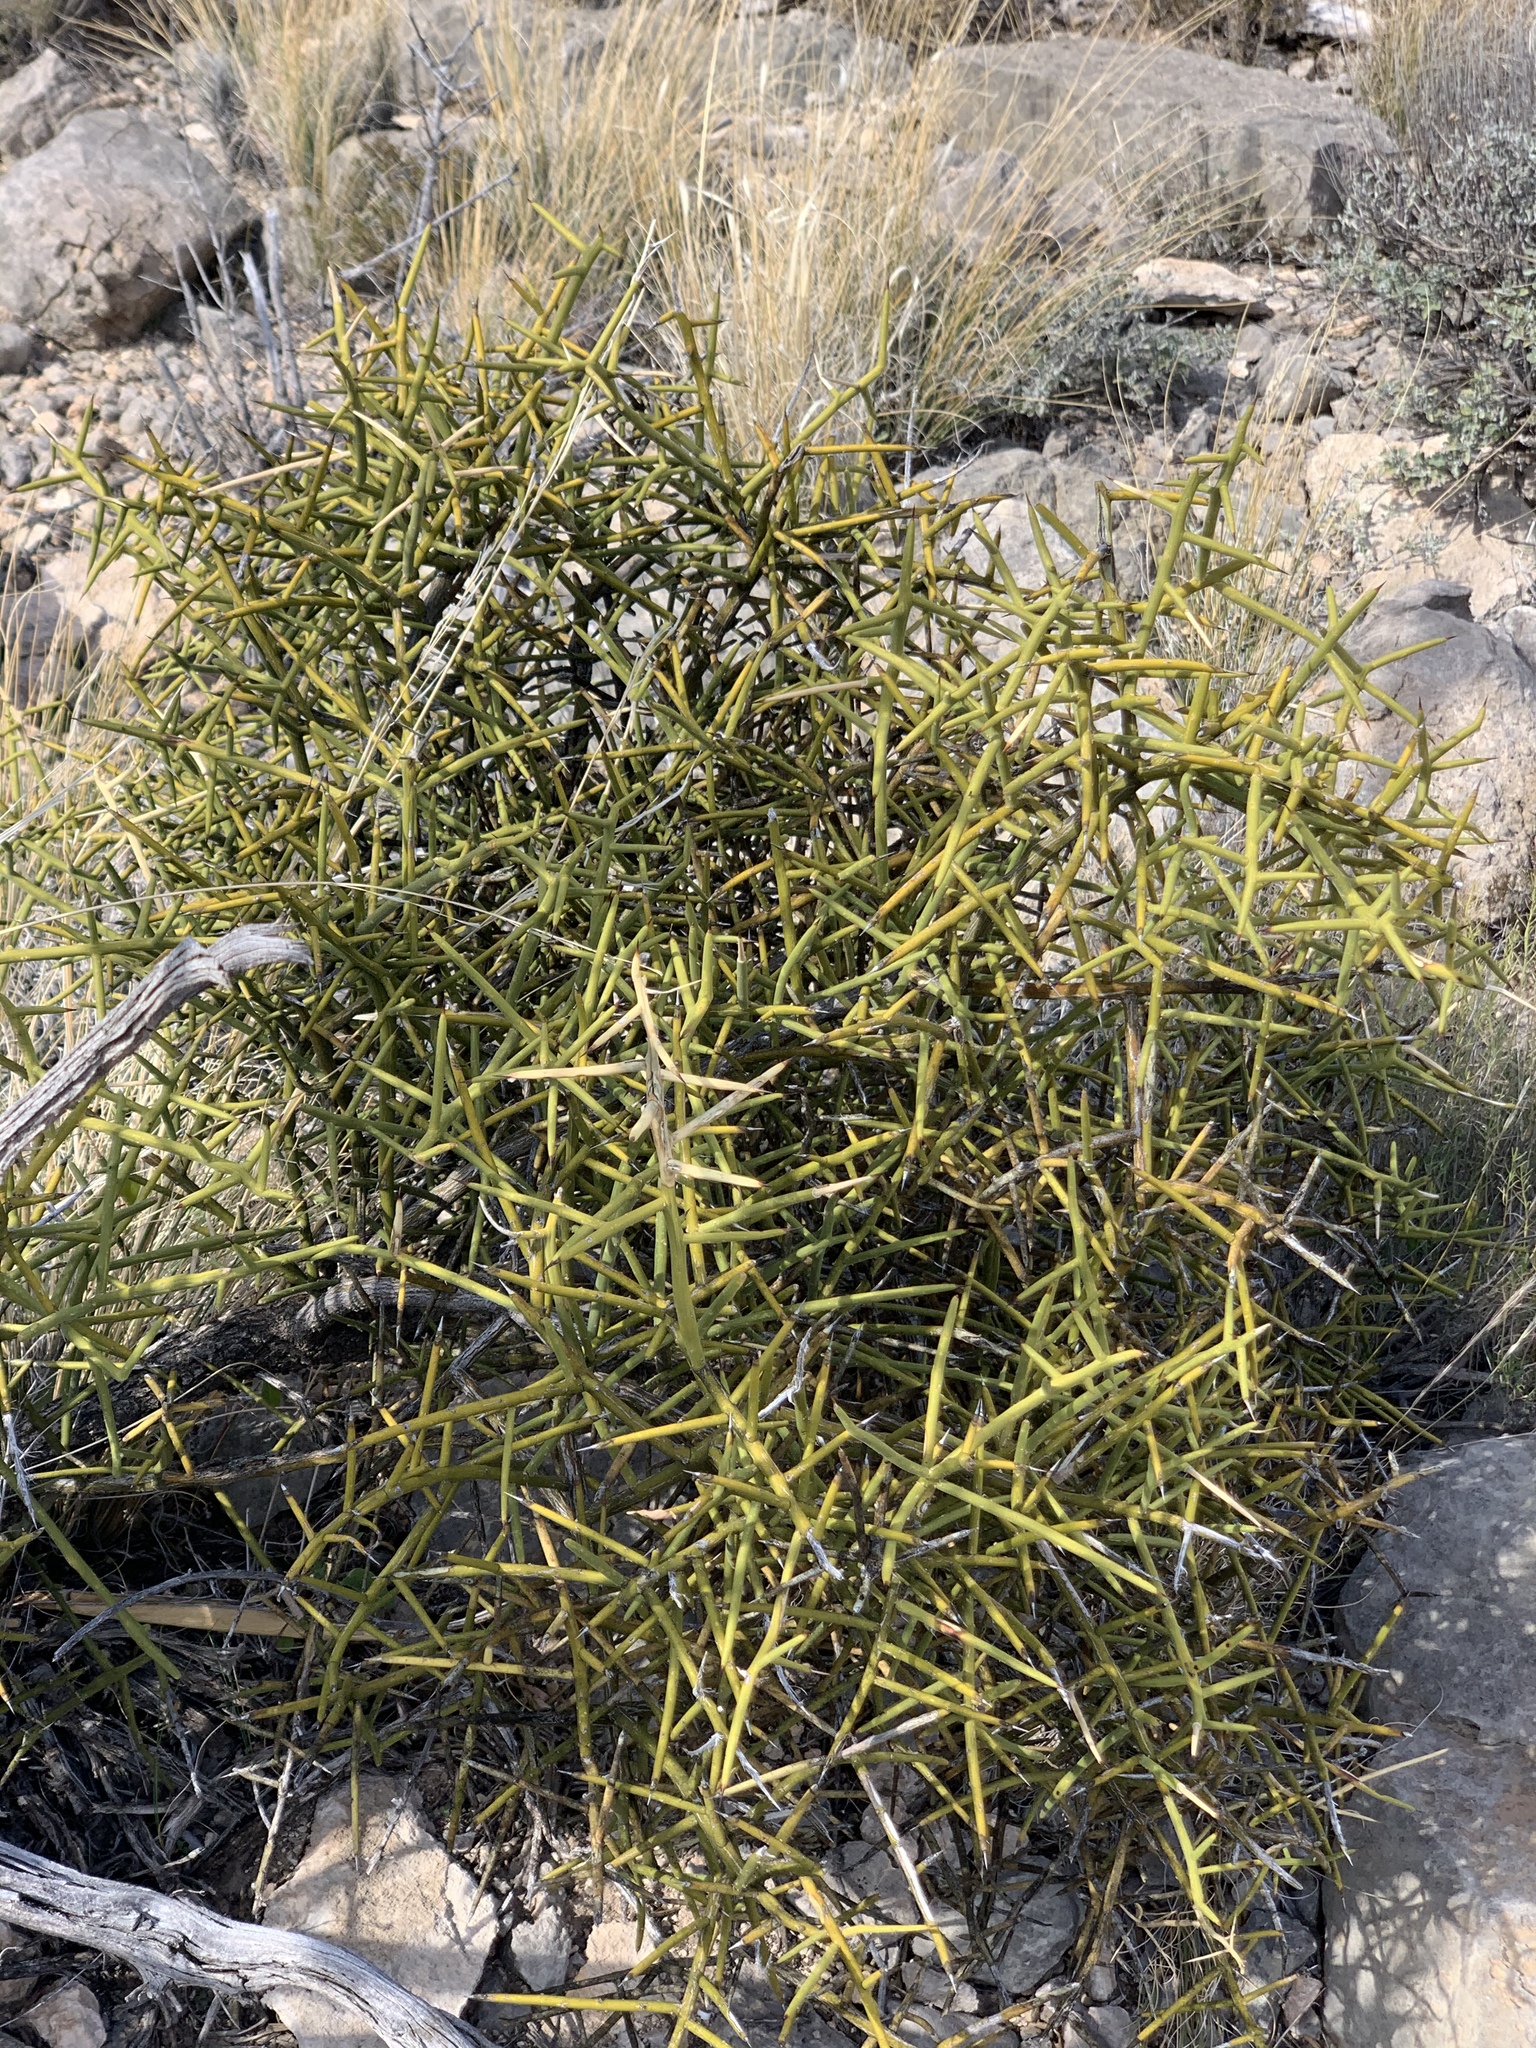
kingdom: Plantae
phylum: Tracheophyta
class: Magnoliopsida
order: Brassicales
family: Koeberliniaceae
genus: Koeberlinia
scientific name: Koeberlinia spinosa
